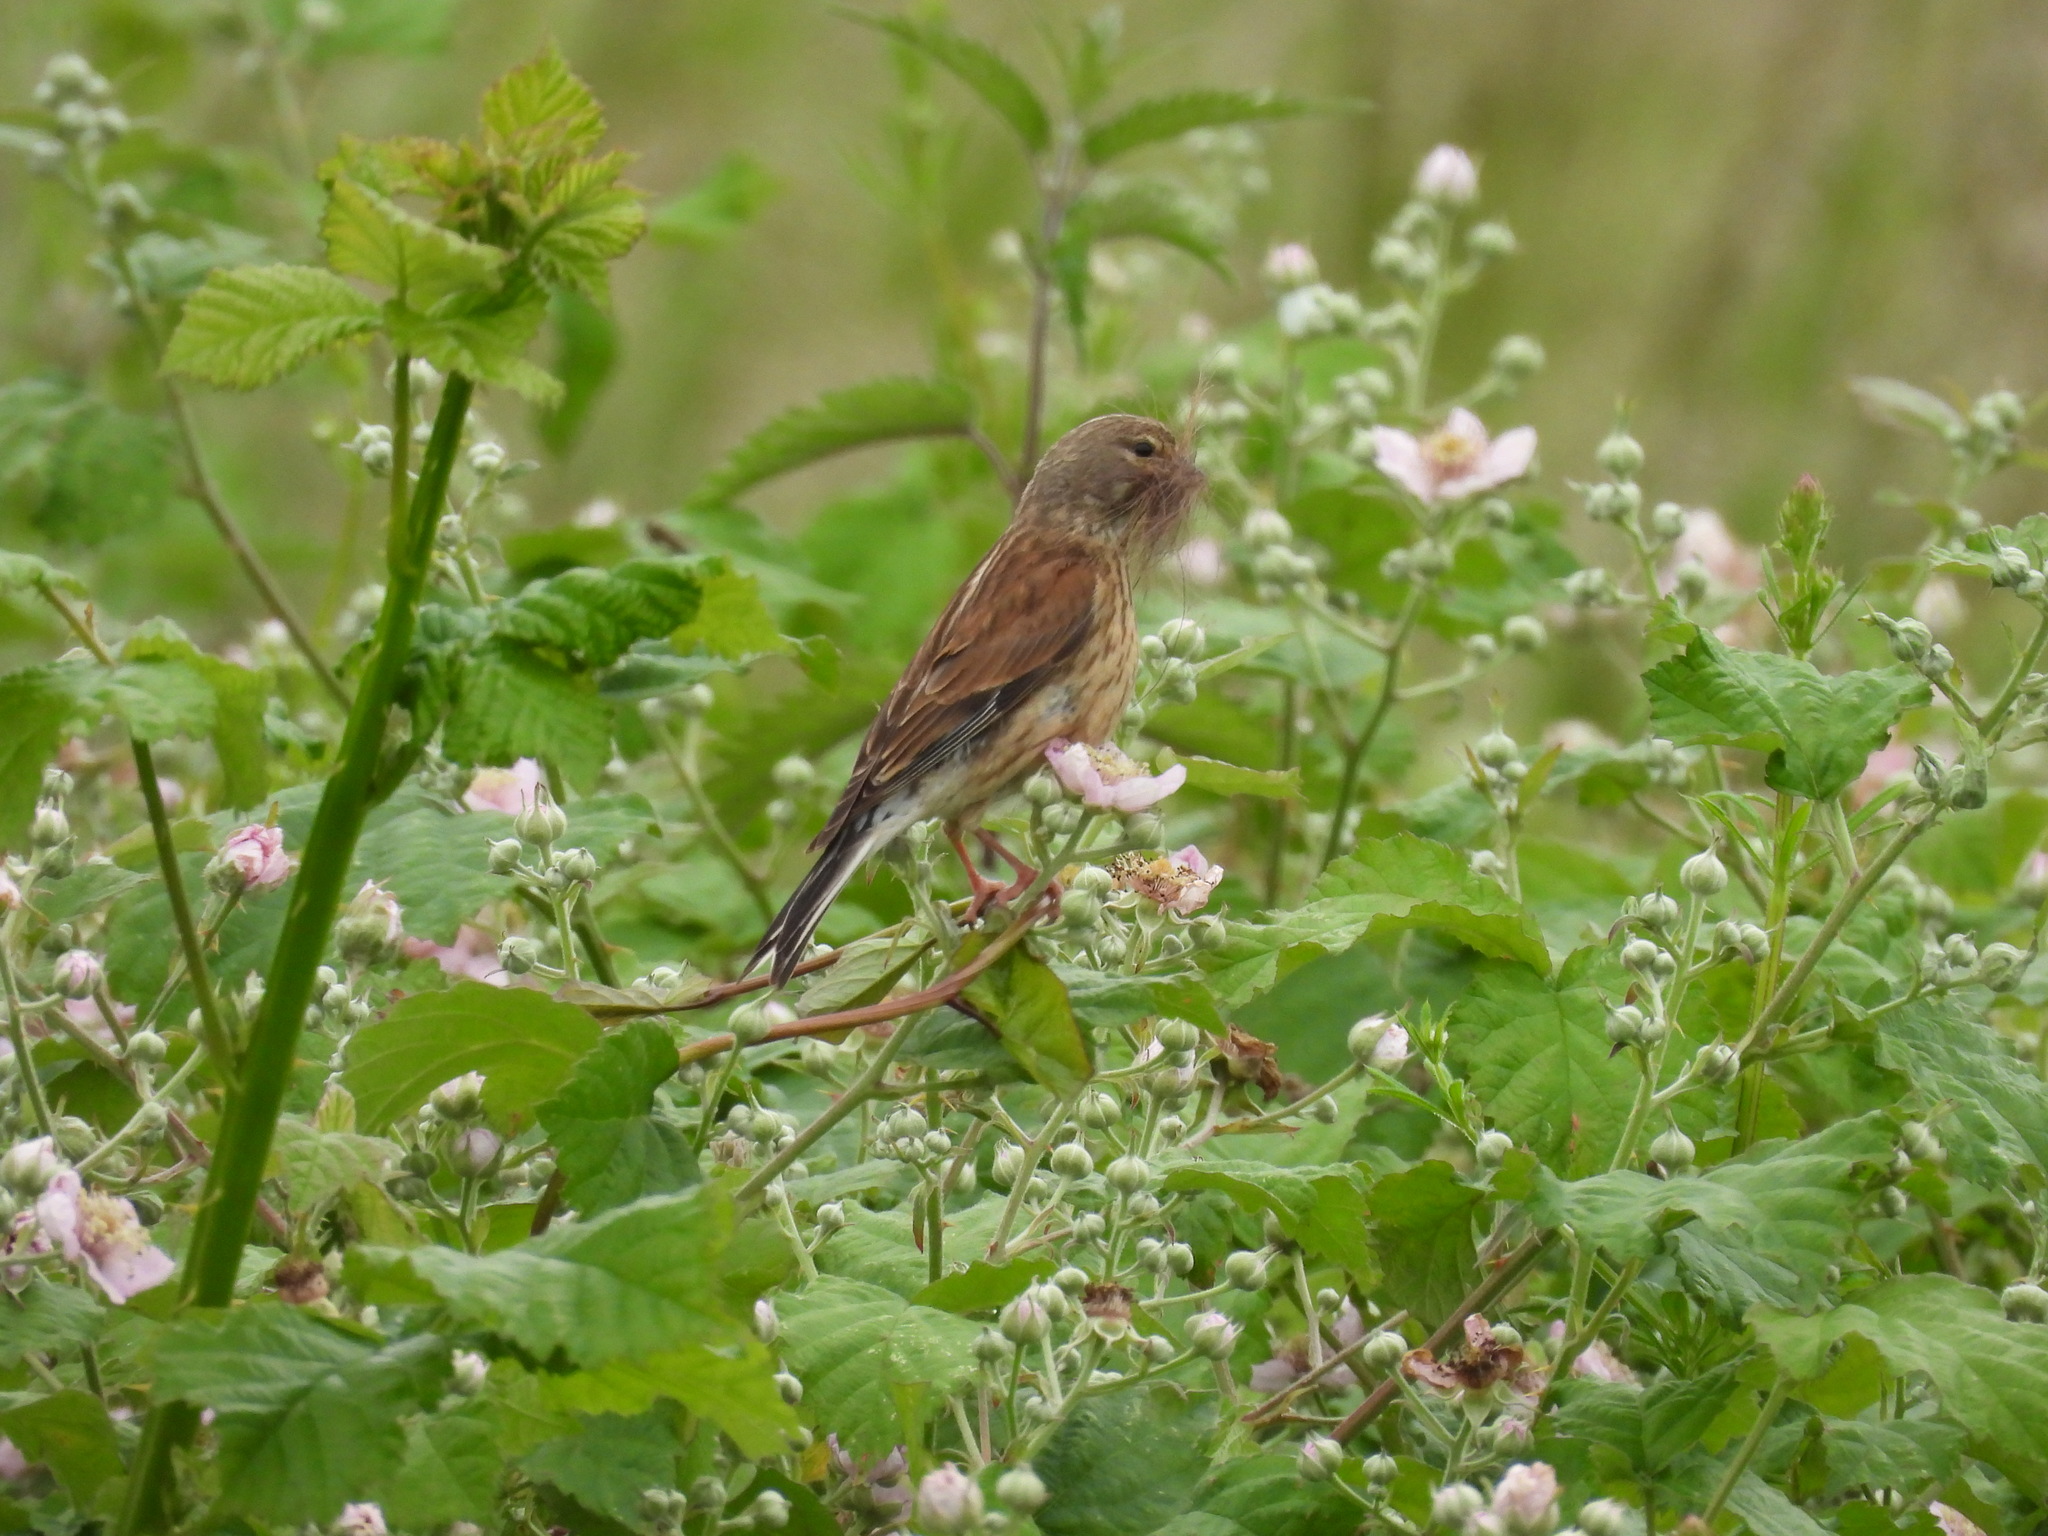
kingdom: Animalia
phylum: Chordata
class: Aves
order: Passeriformes
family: Fringillidae
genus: Linaria
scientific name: Linaria cannabina
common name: Common linnet
